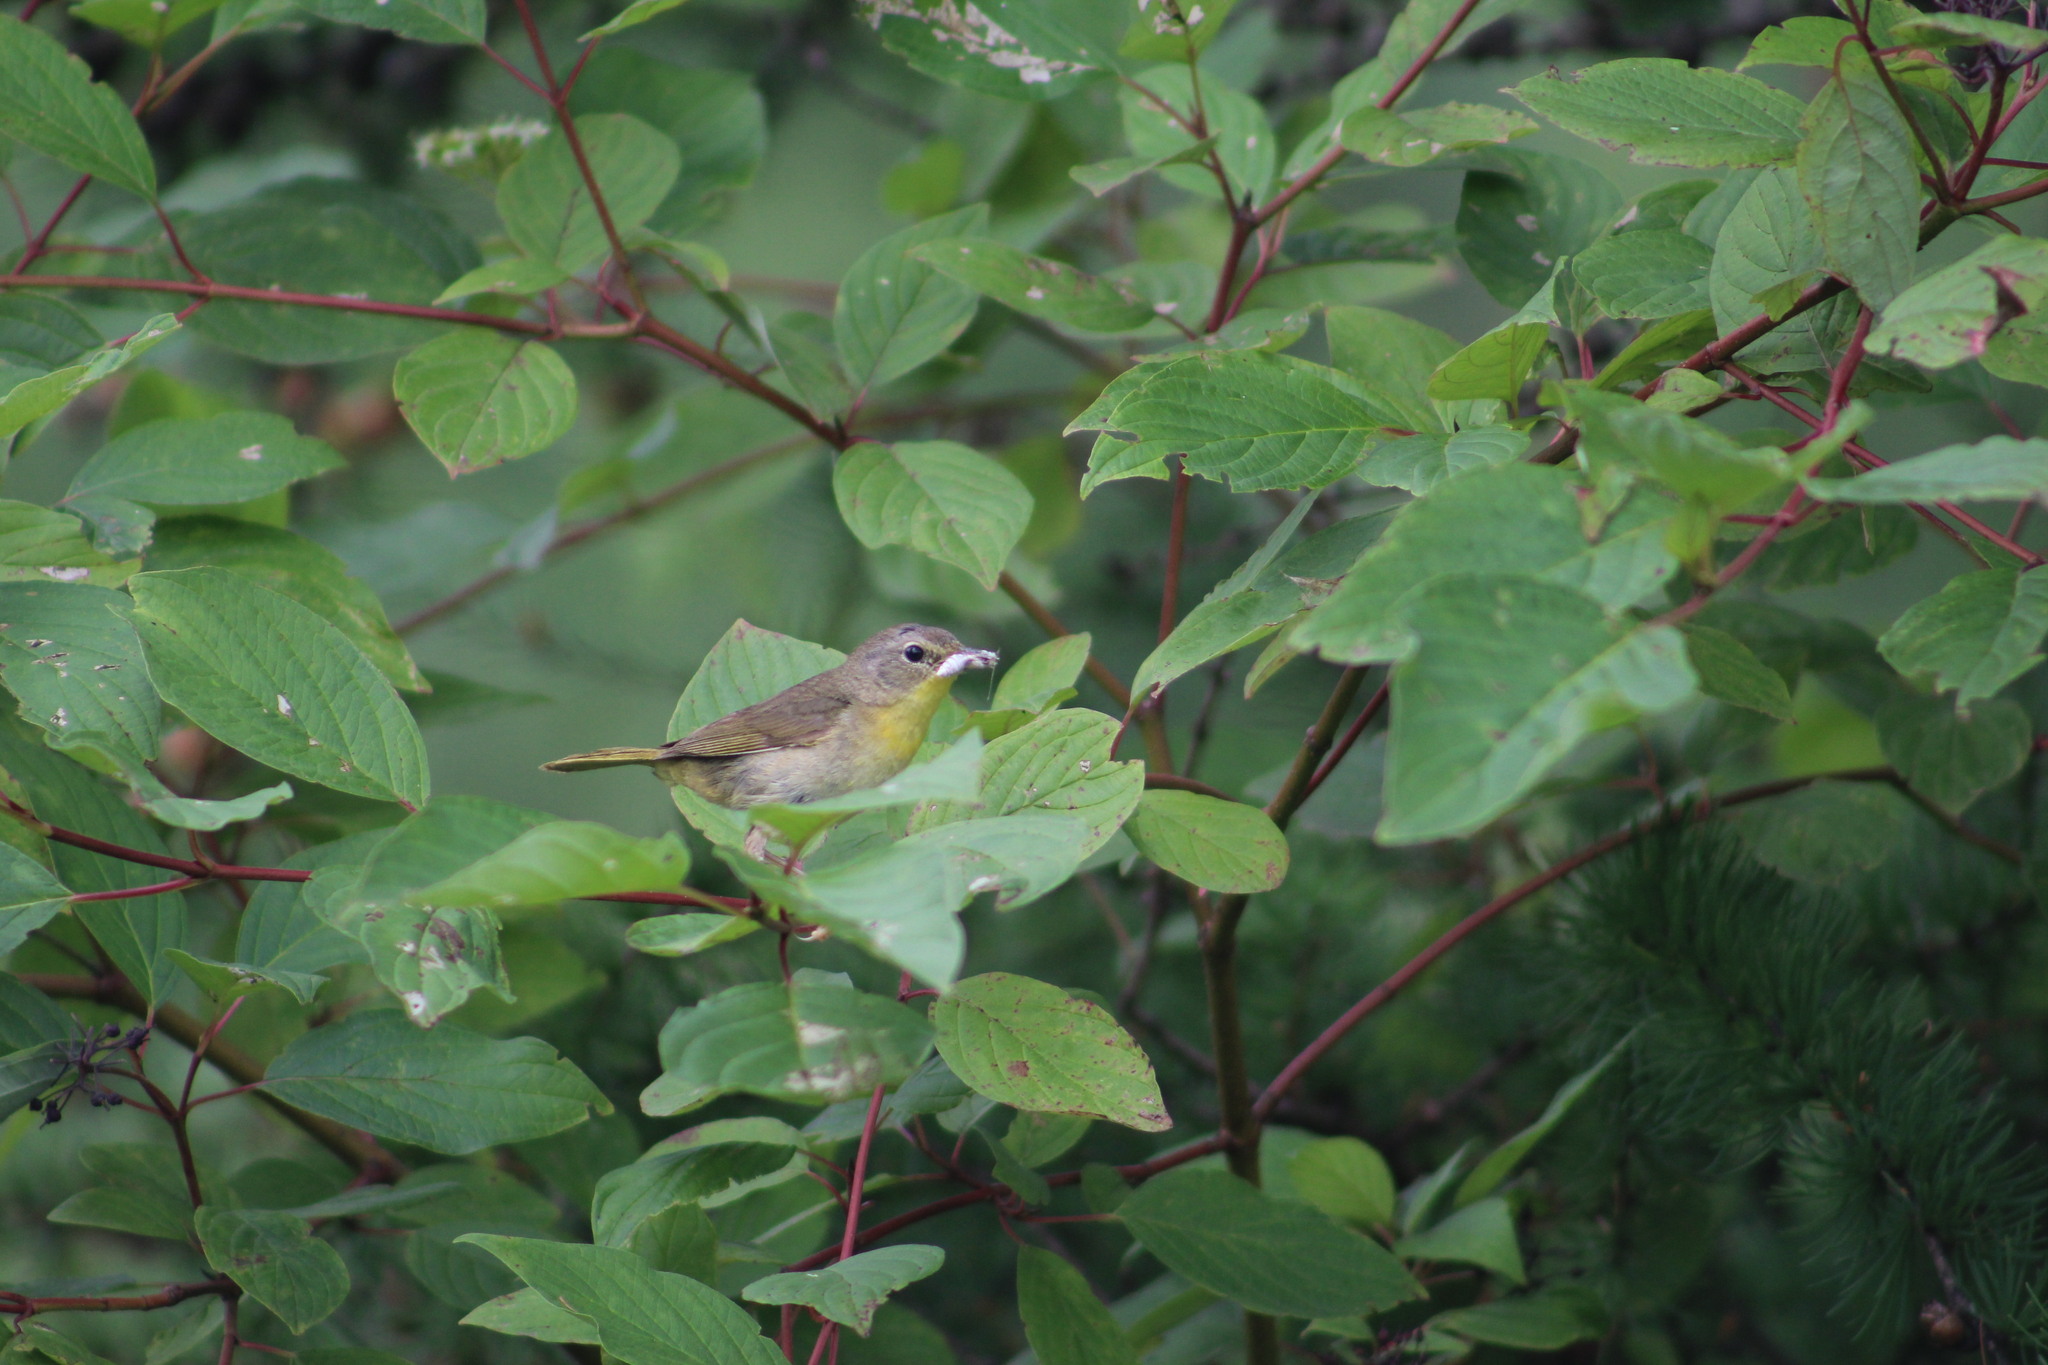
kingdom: Animalia
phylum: Chordata
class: Aves
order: Passeriformes
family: Parulidae
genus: Geothlypis
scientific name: Geothlypis trichas
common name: Common yellowthroat
